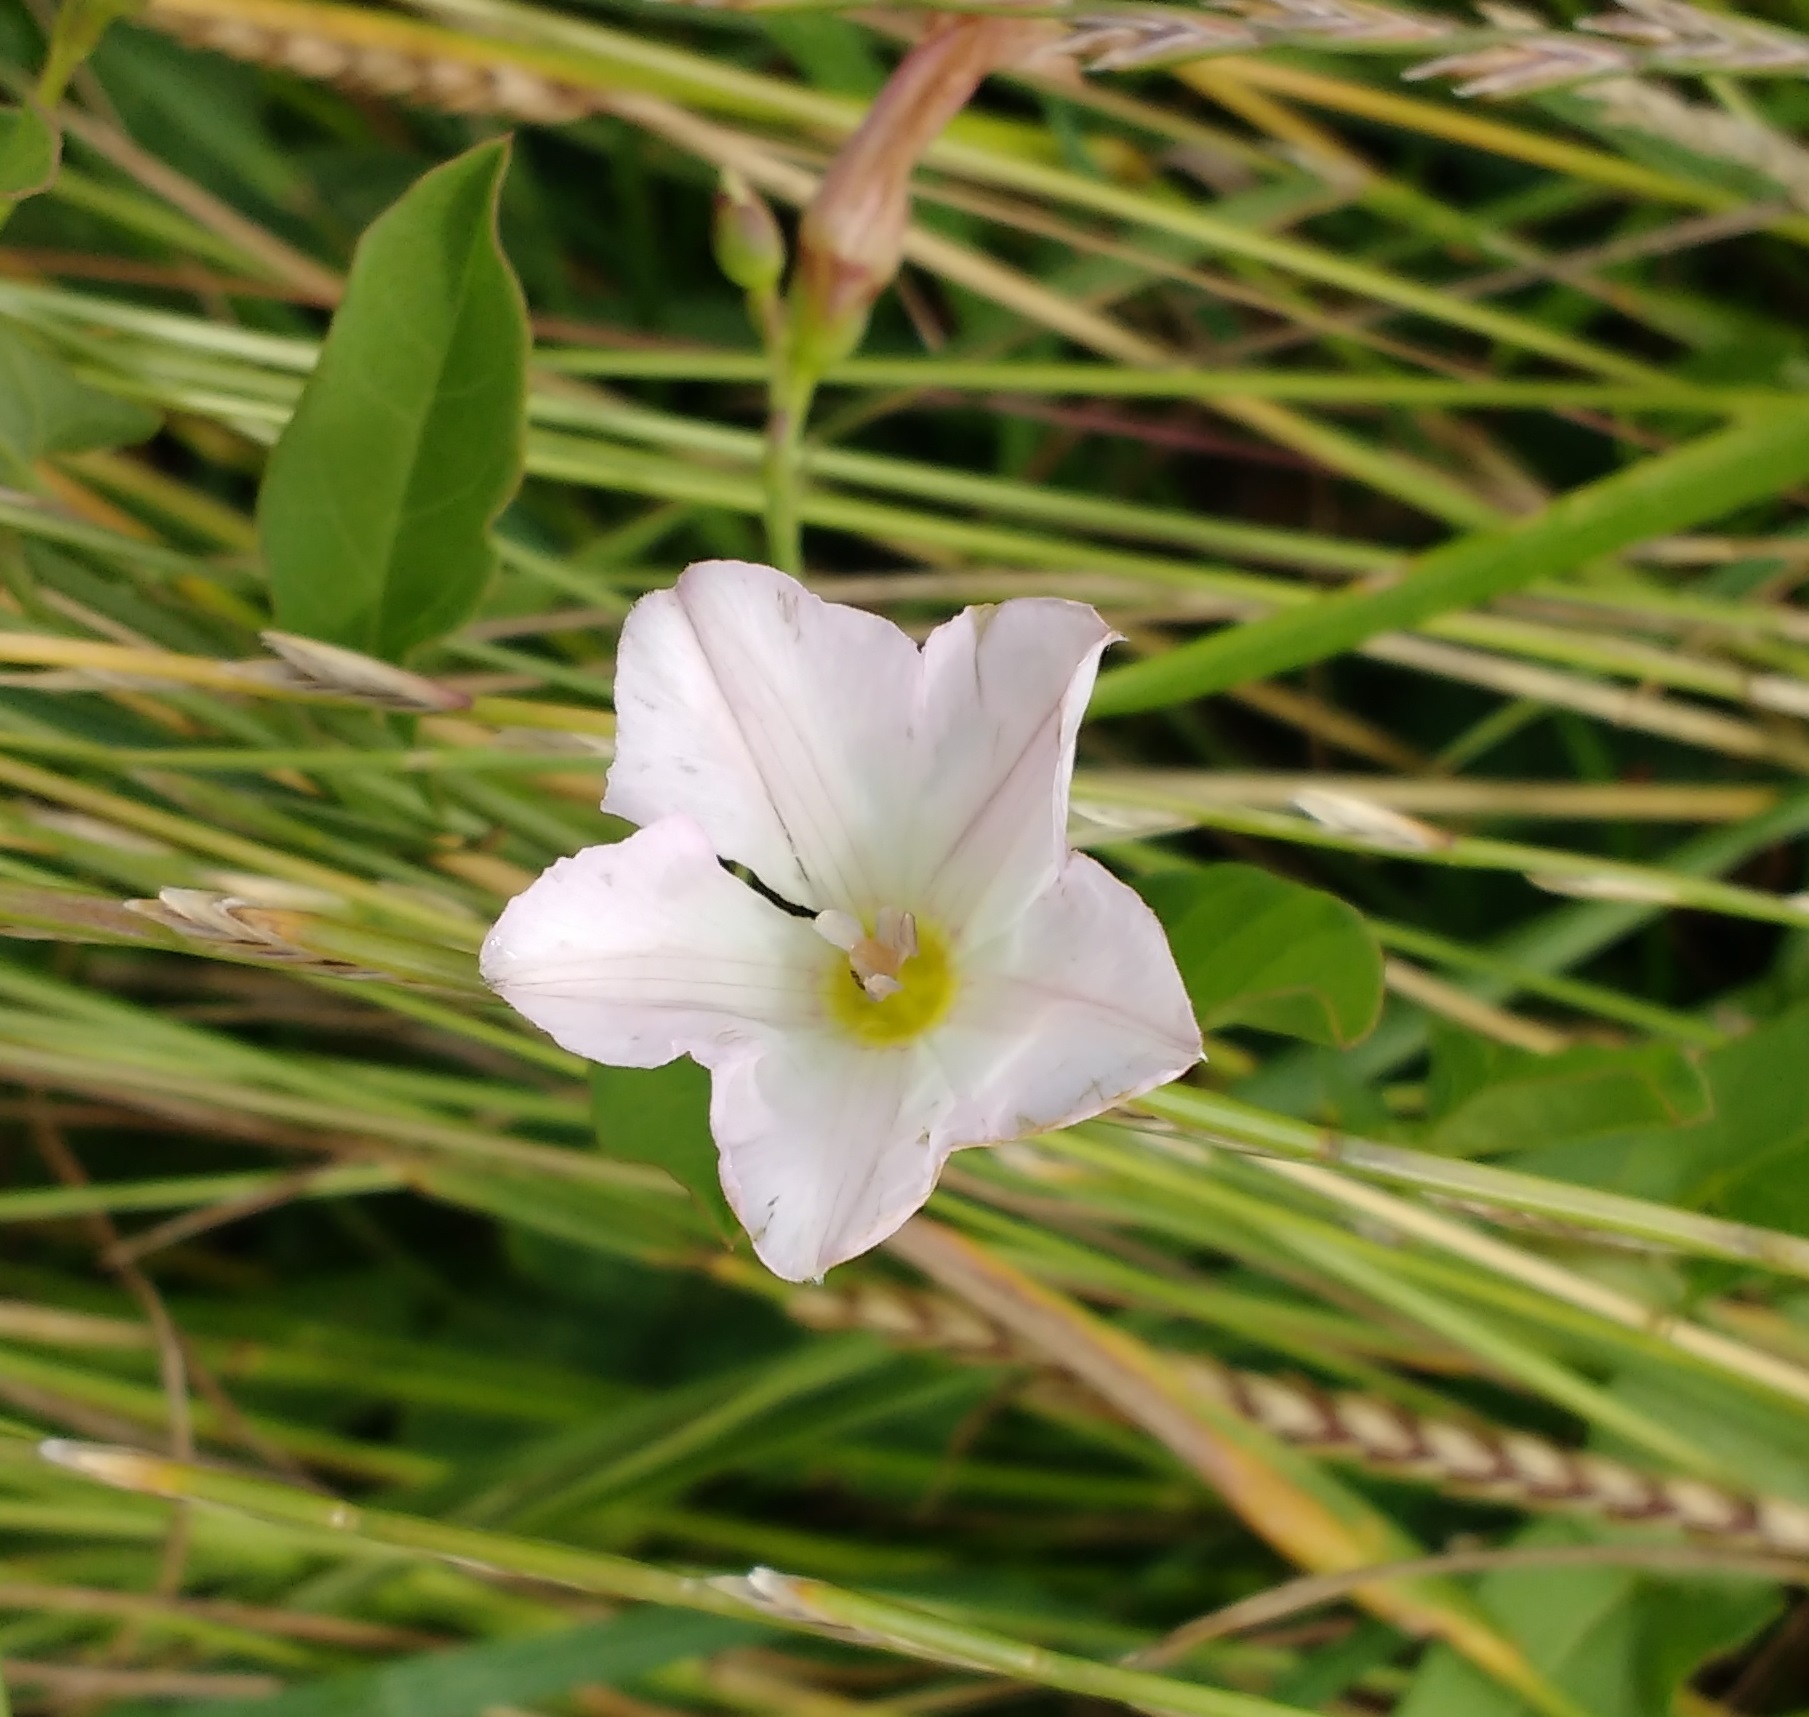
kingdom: Plantae
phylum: Tracheophyta
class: Magnoliopsida
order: Solanales
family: Convolvulaceae
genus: Convolvulus
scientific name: Convolvulus arvensis
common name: Field bindweed
